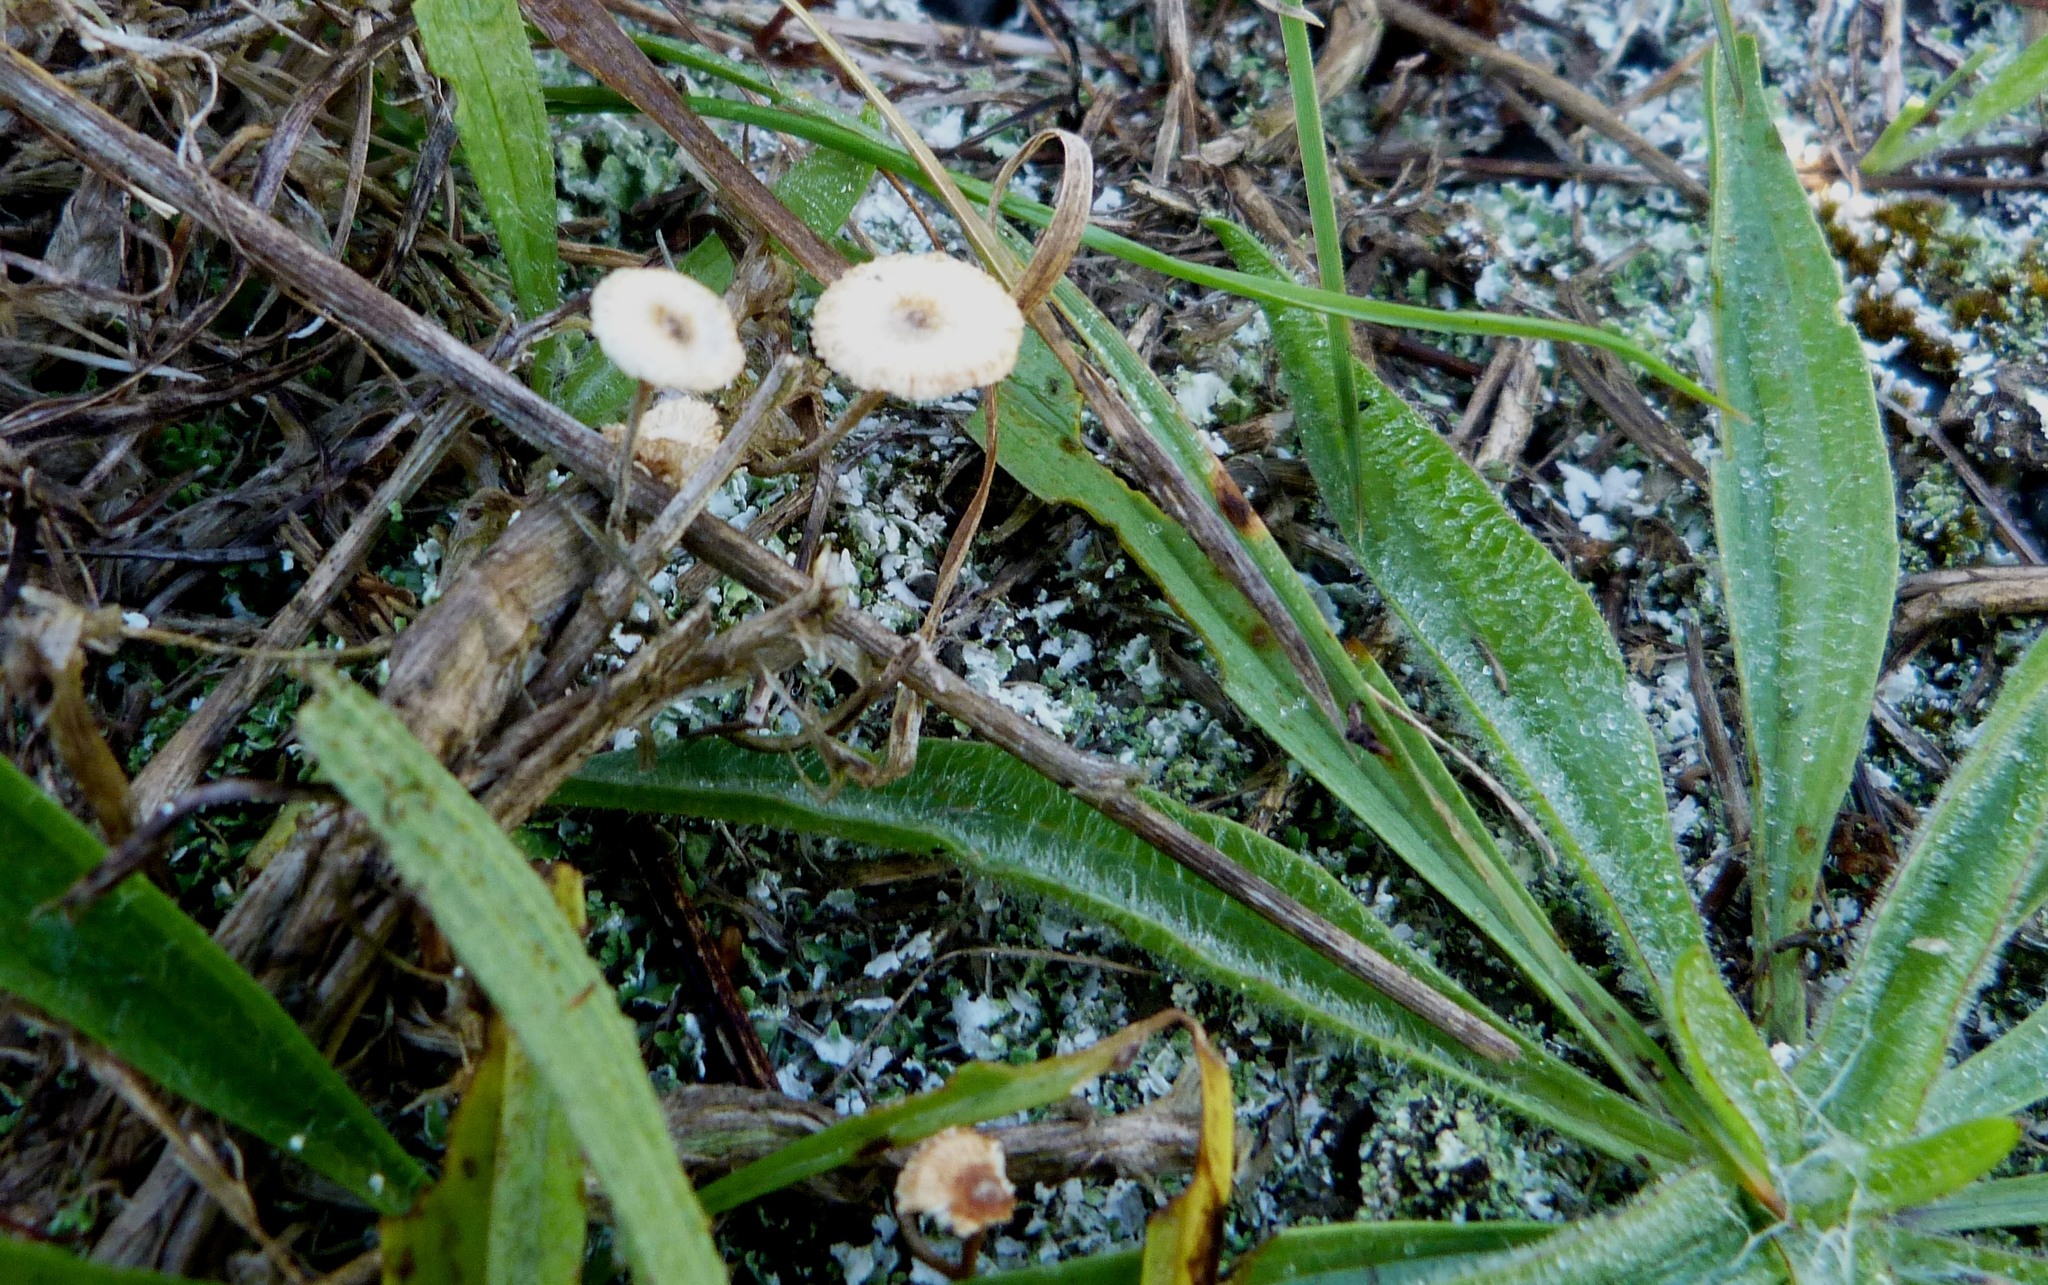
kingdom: Fungi
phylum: Basidiomycota
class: Agaricomycetes
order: Agaricales
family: Marasmiaceae
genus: Crinipellis
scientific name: Crinipellis scabella
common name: Hairy parachute
